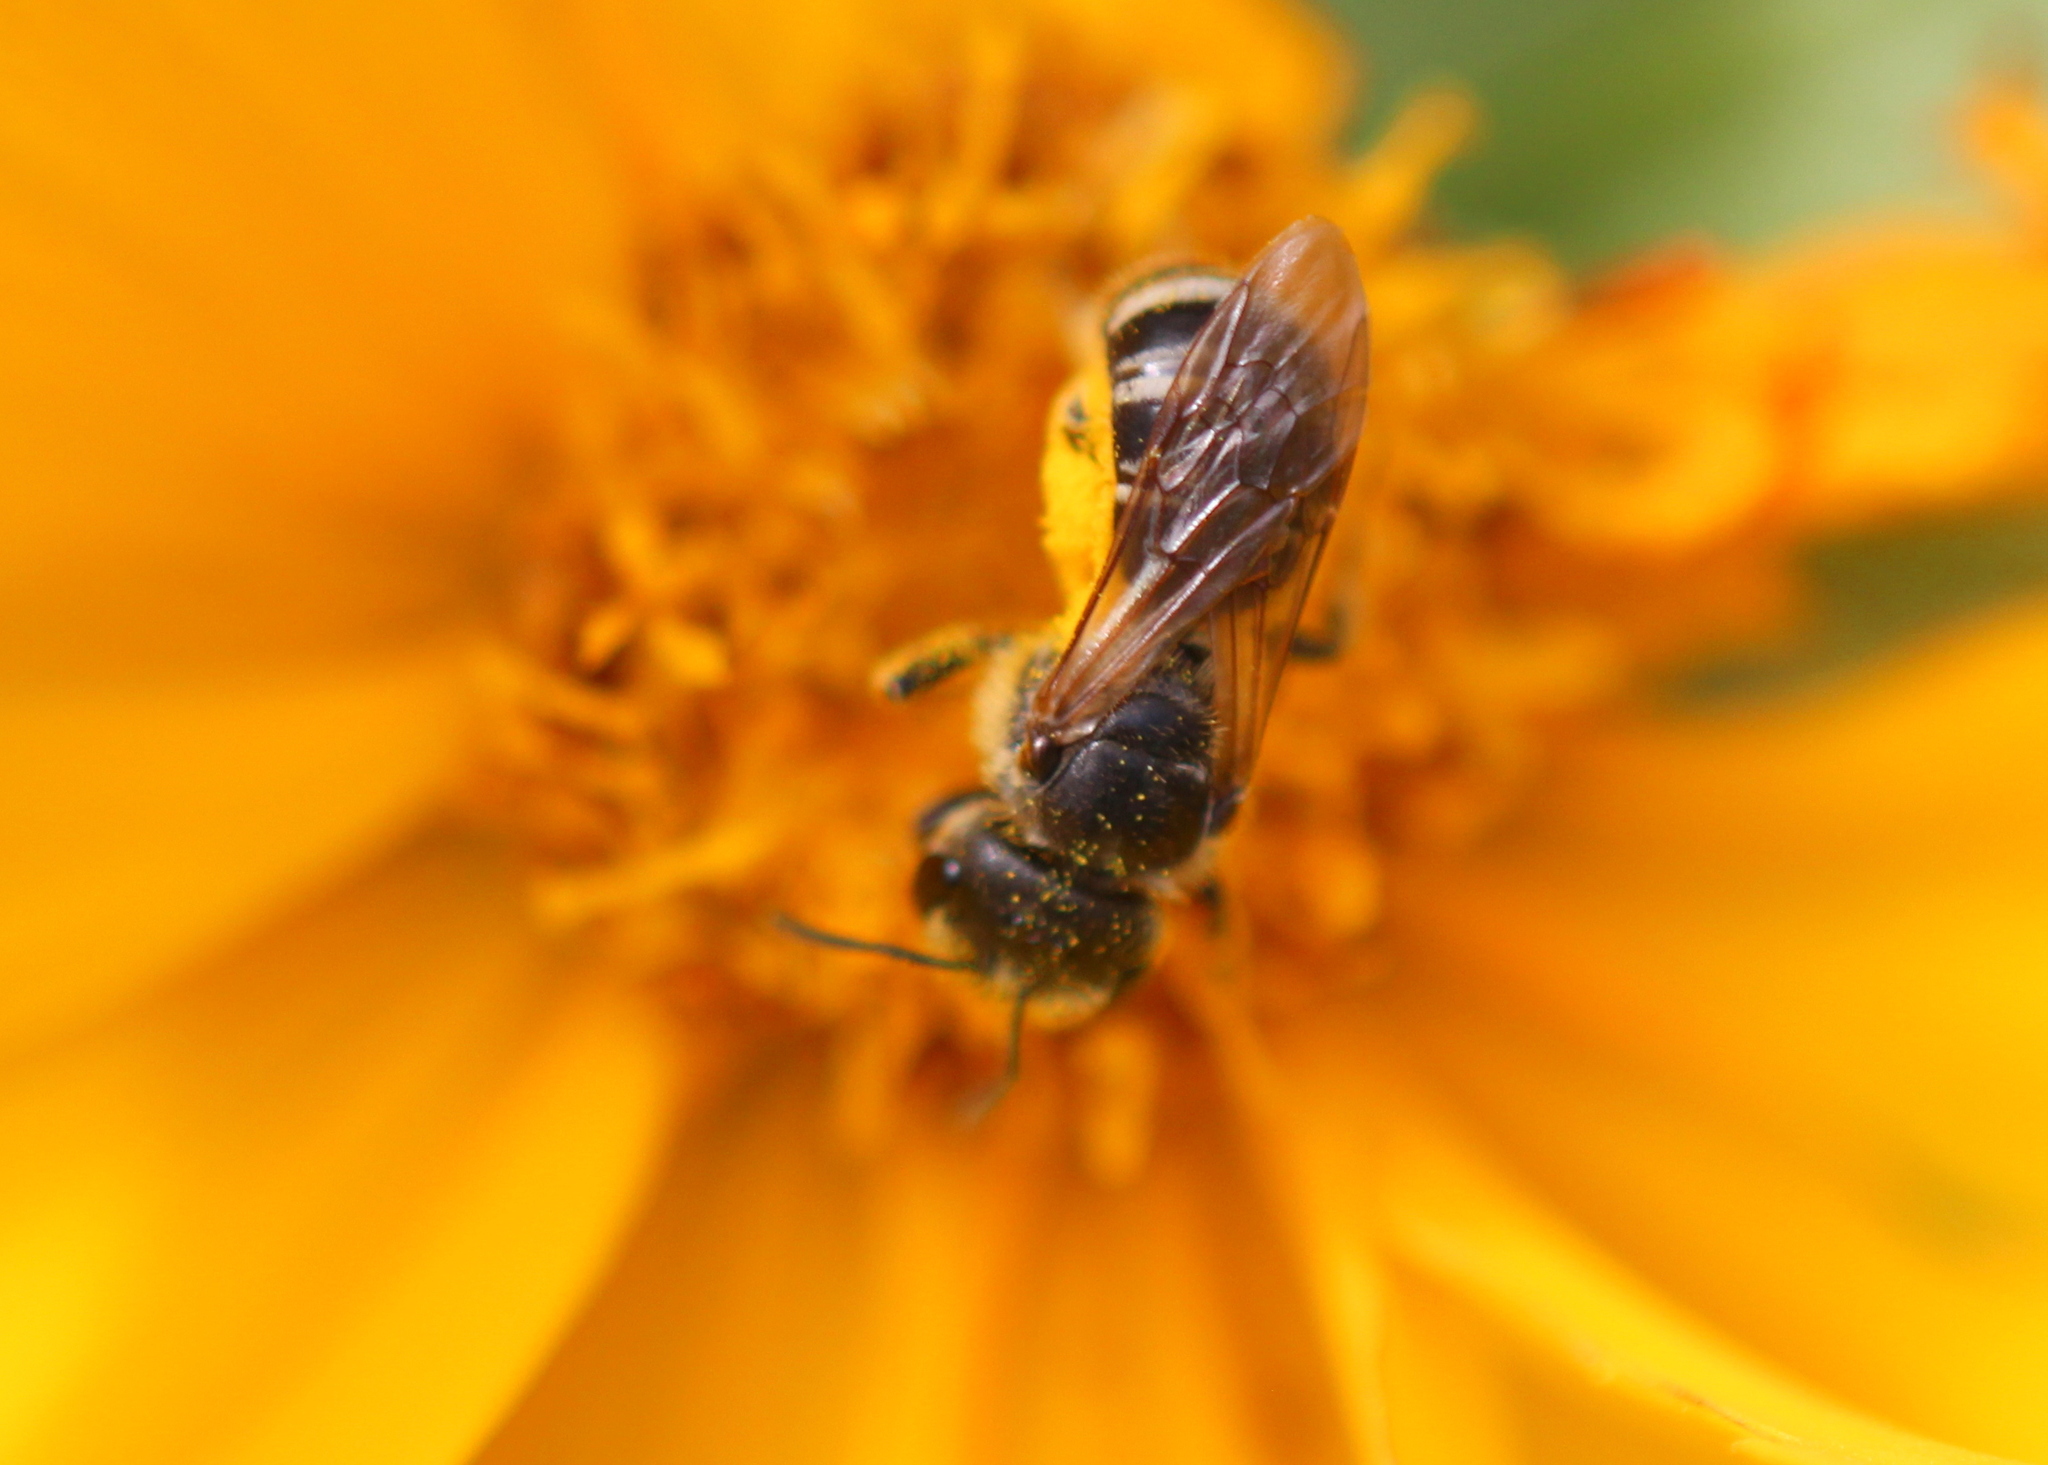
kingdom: Animalia
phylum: Arthropoda
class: Insecta
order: Hymenoptera
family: Halictidae
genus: Halictus
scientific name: Halictus ligatus
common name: Ligated furrow bee
